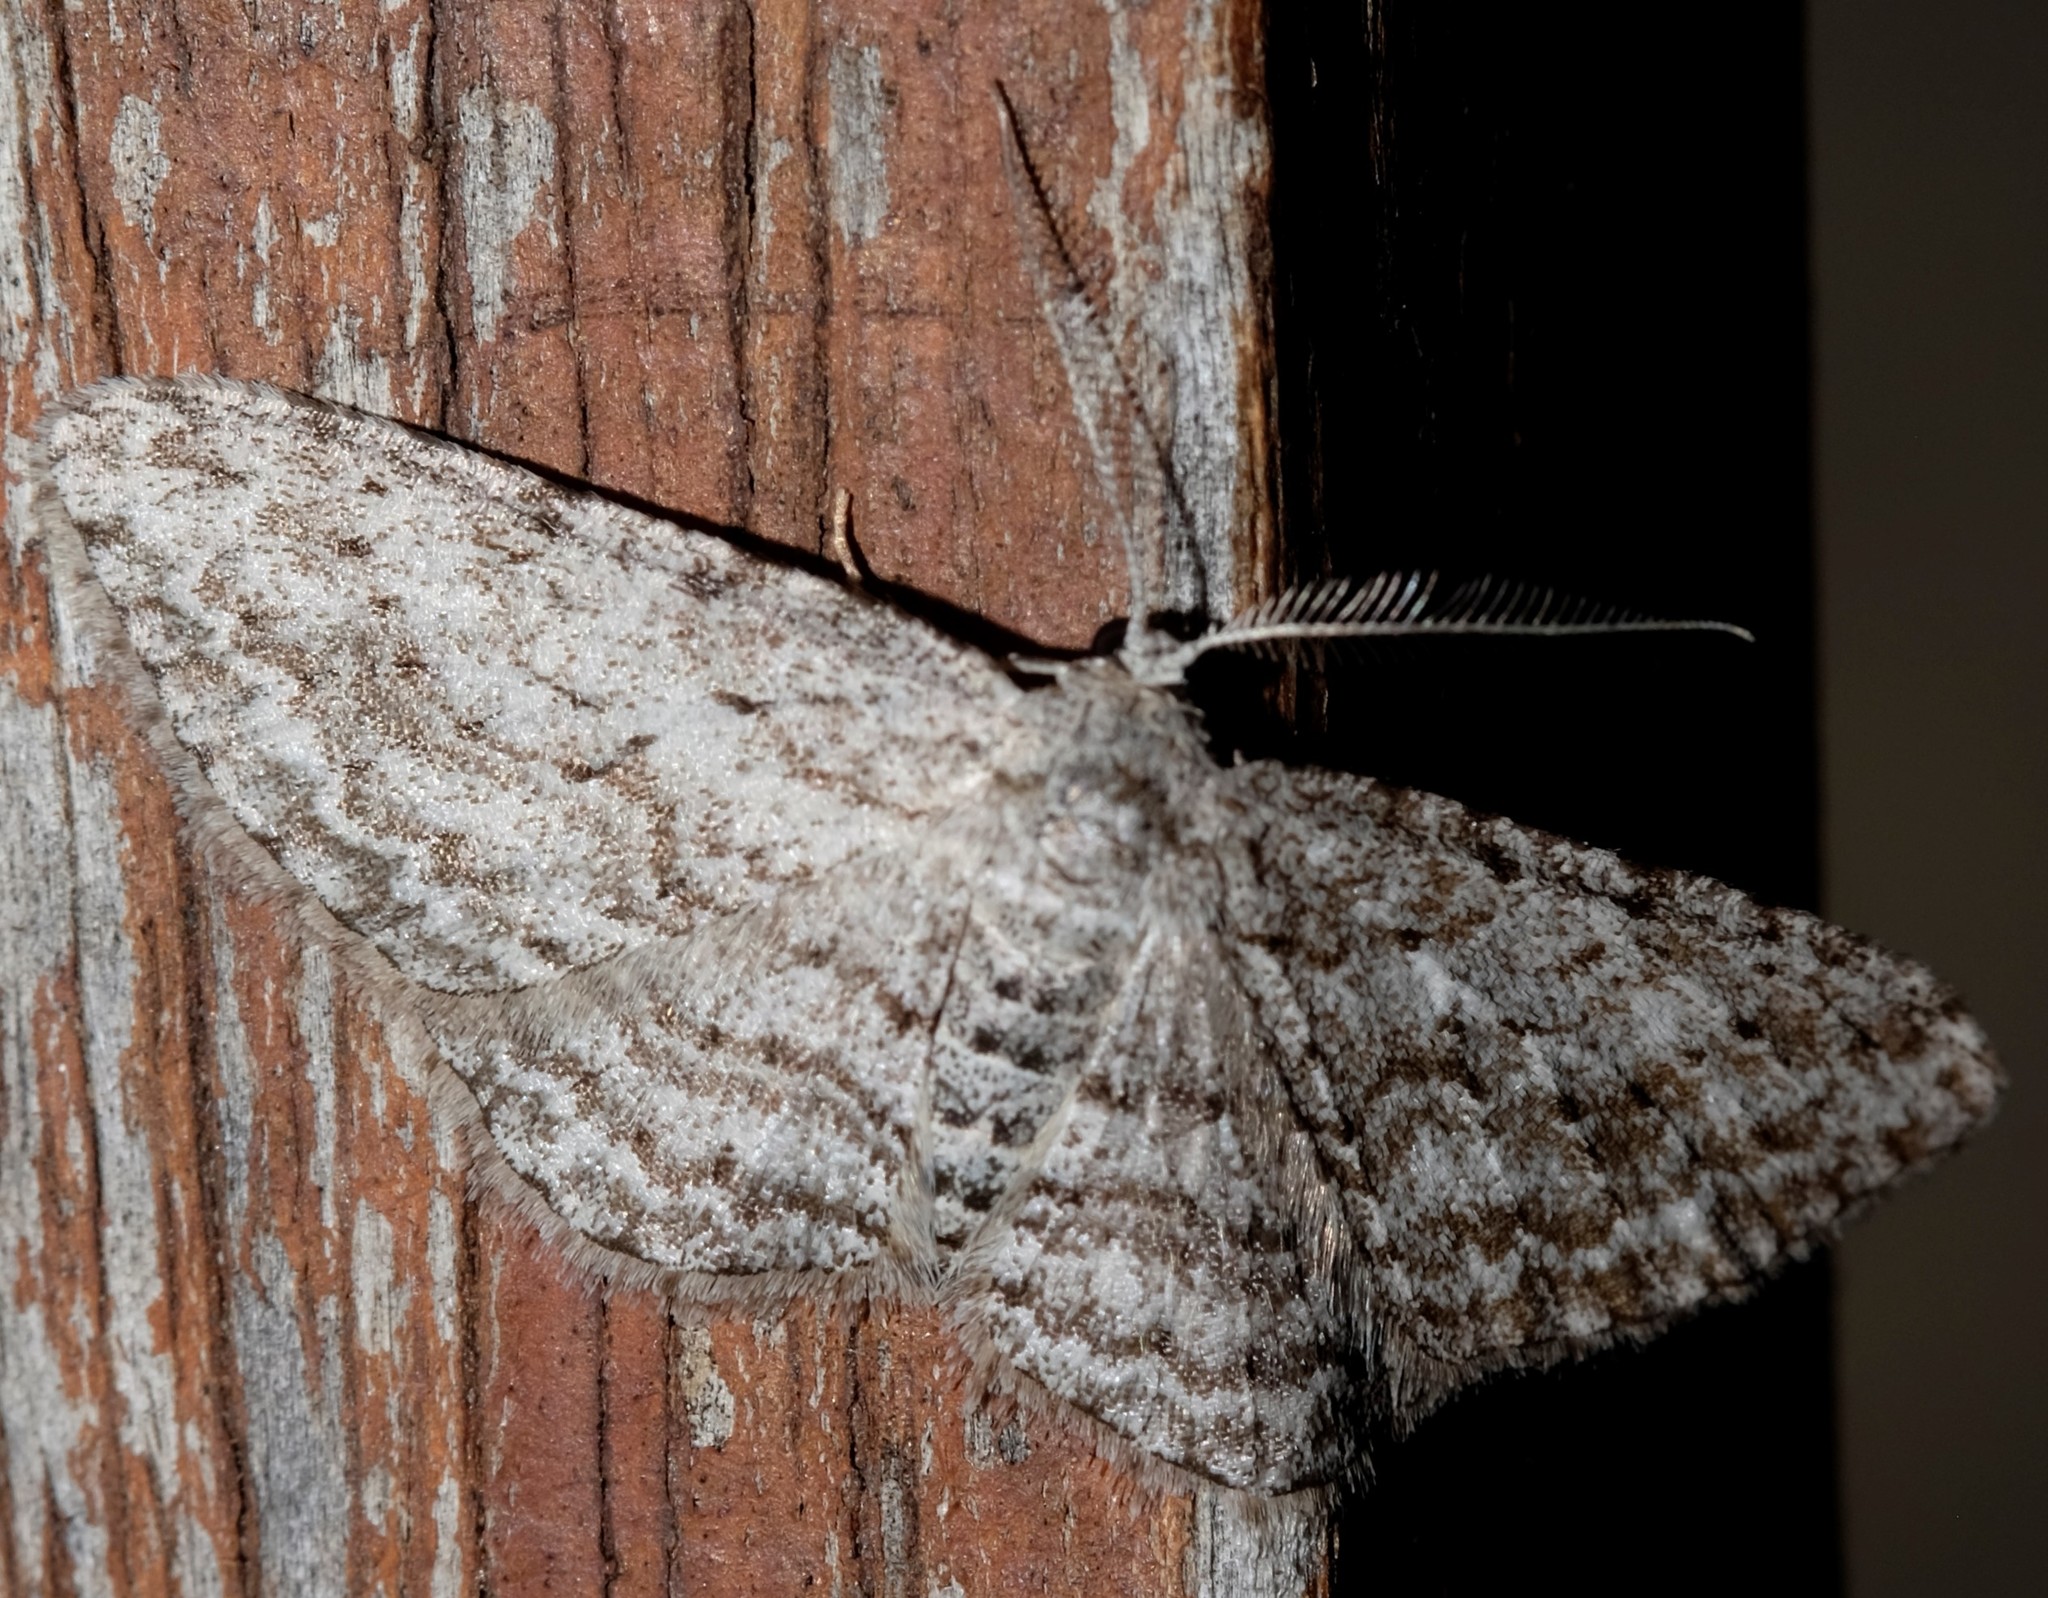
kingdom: Animalia
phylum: Arthropoda
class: Insecta
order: Lepidoptera
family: Geometridae
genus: Phelotis
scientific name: Phelotis cognata
